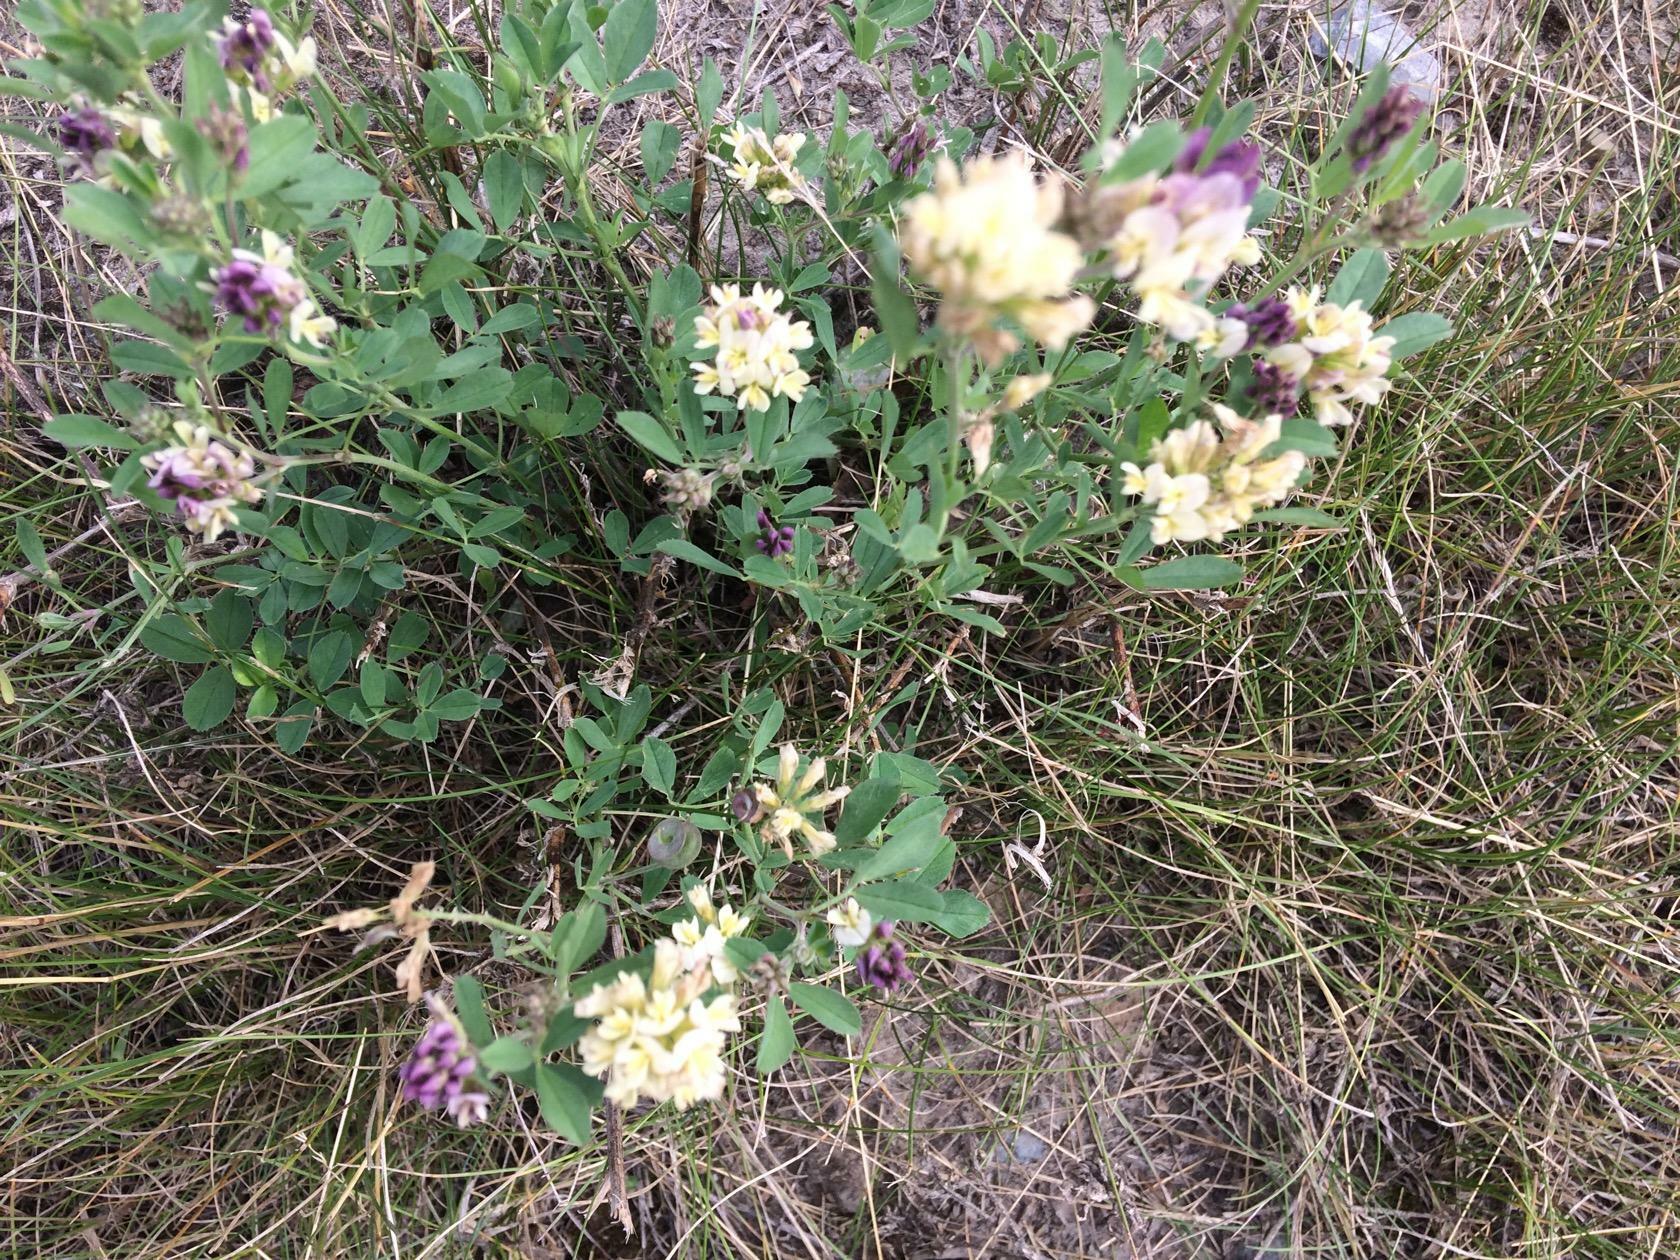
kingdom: Plantae
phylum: Tracheophyta
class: Magnoliopsida
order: Fabales
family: Fabaceae
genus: Medicago
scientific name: Medicago varia
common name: Sand lucerne
